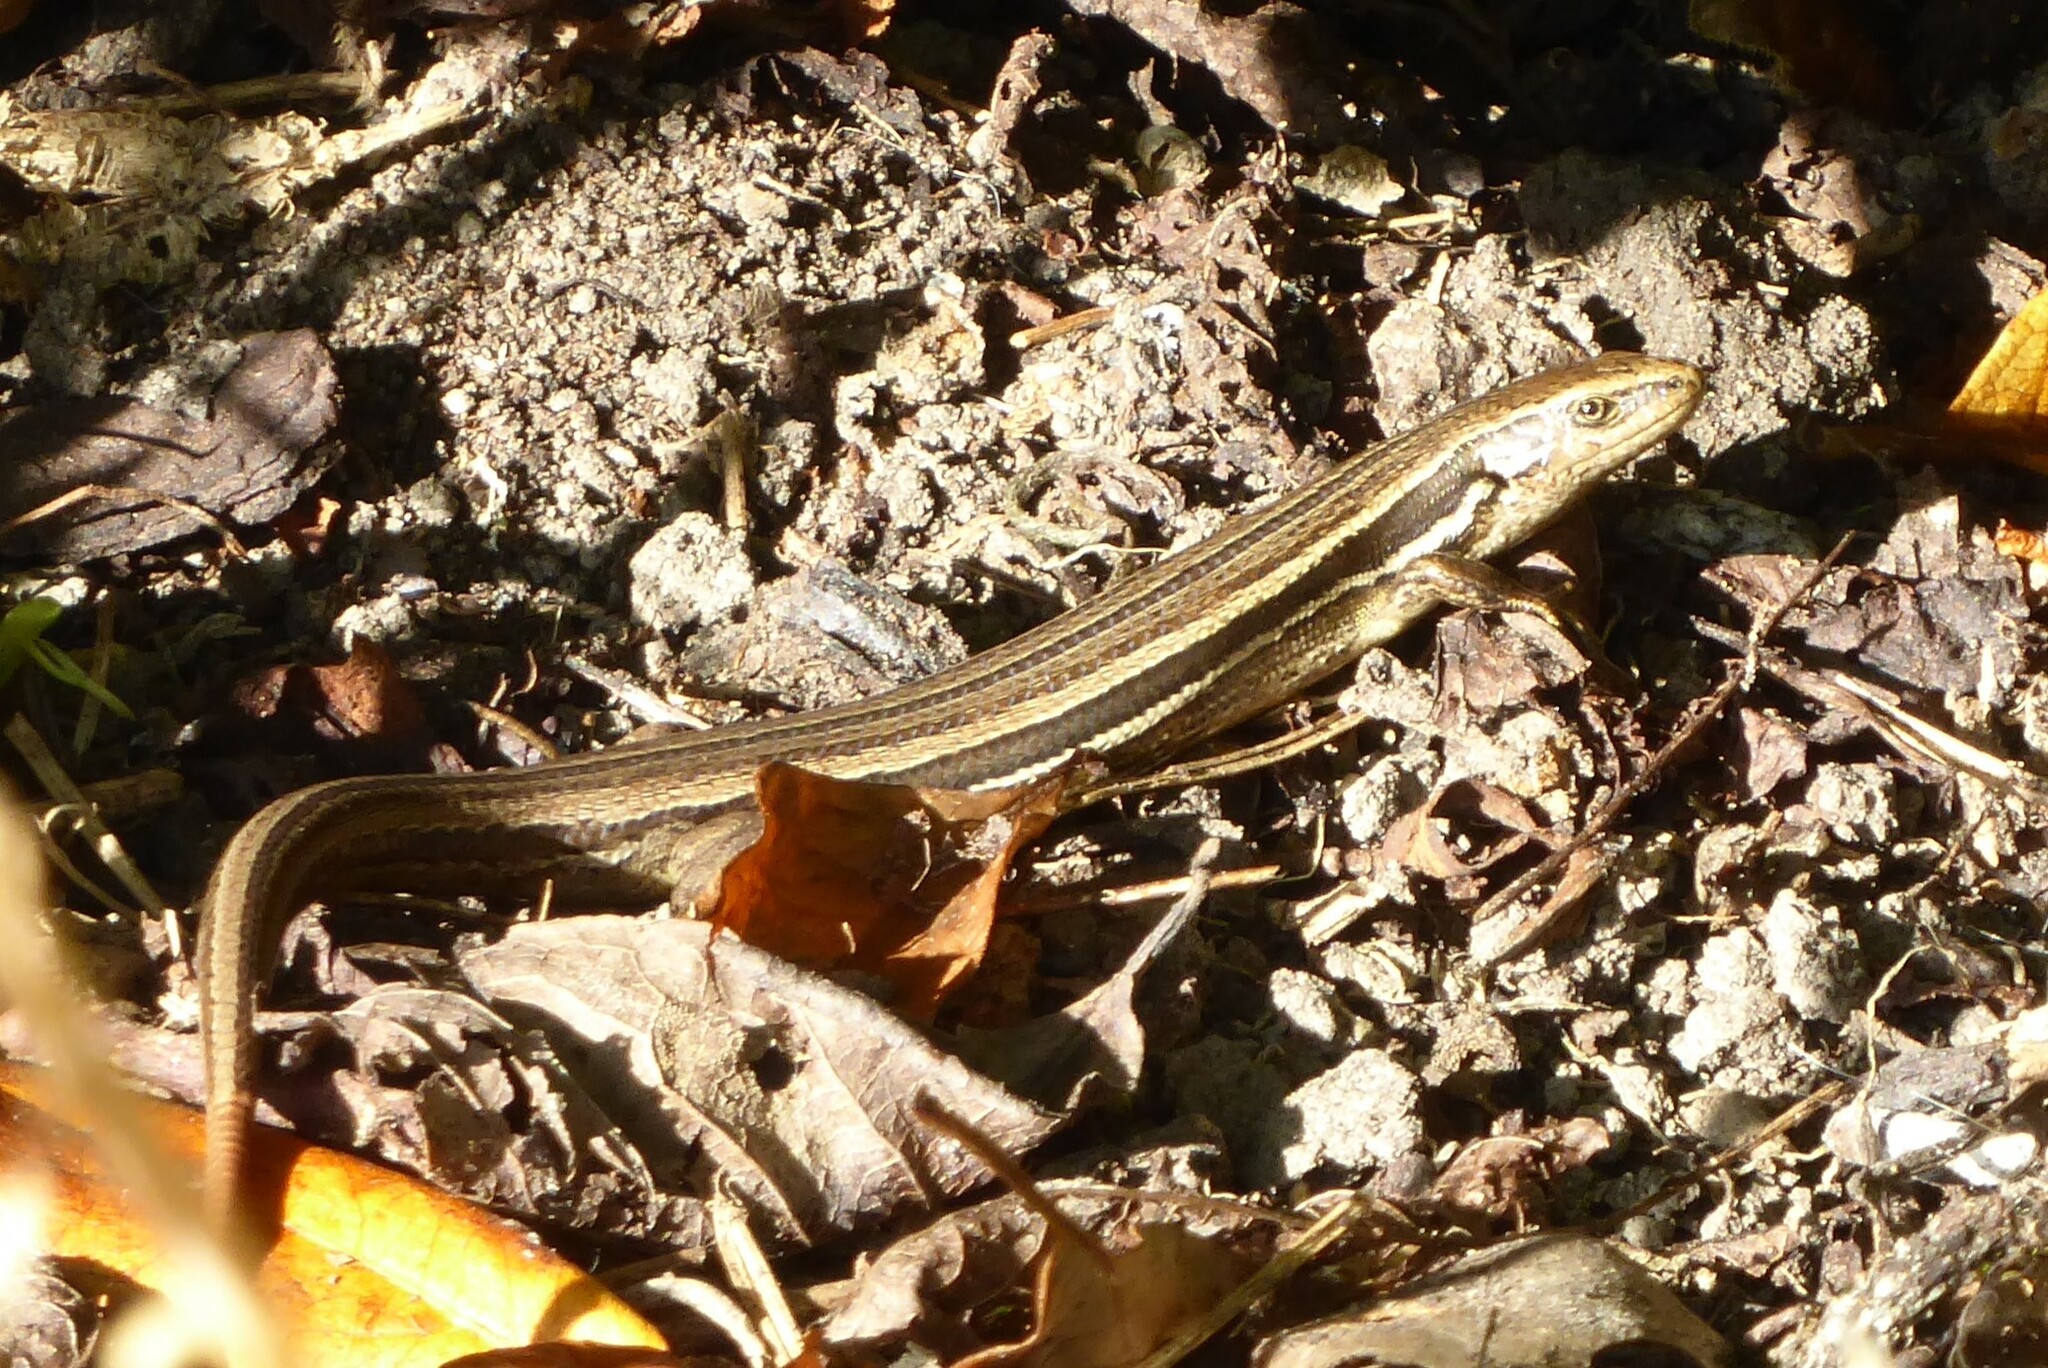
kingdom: Animalia
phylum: Chordata
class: Squamata
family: Scincidae
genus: Oligosoma
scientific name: Oligosoma polychroma
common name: Common new zealand skink
